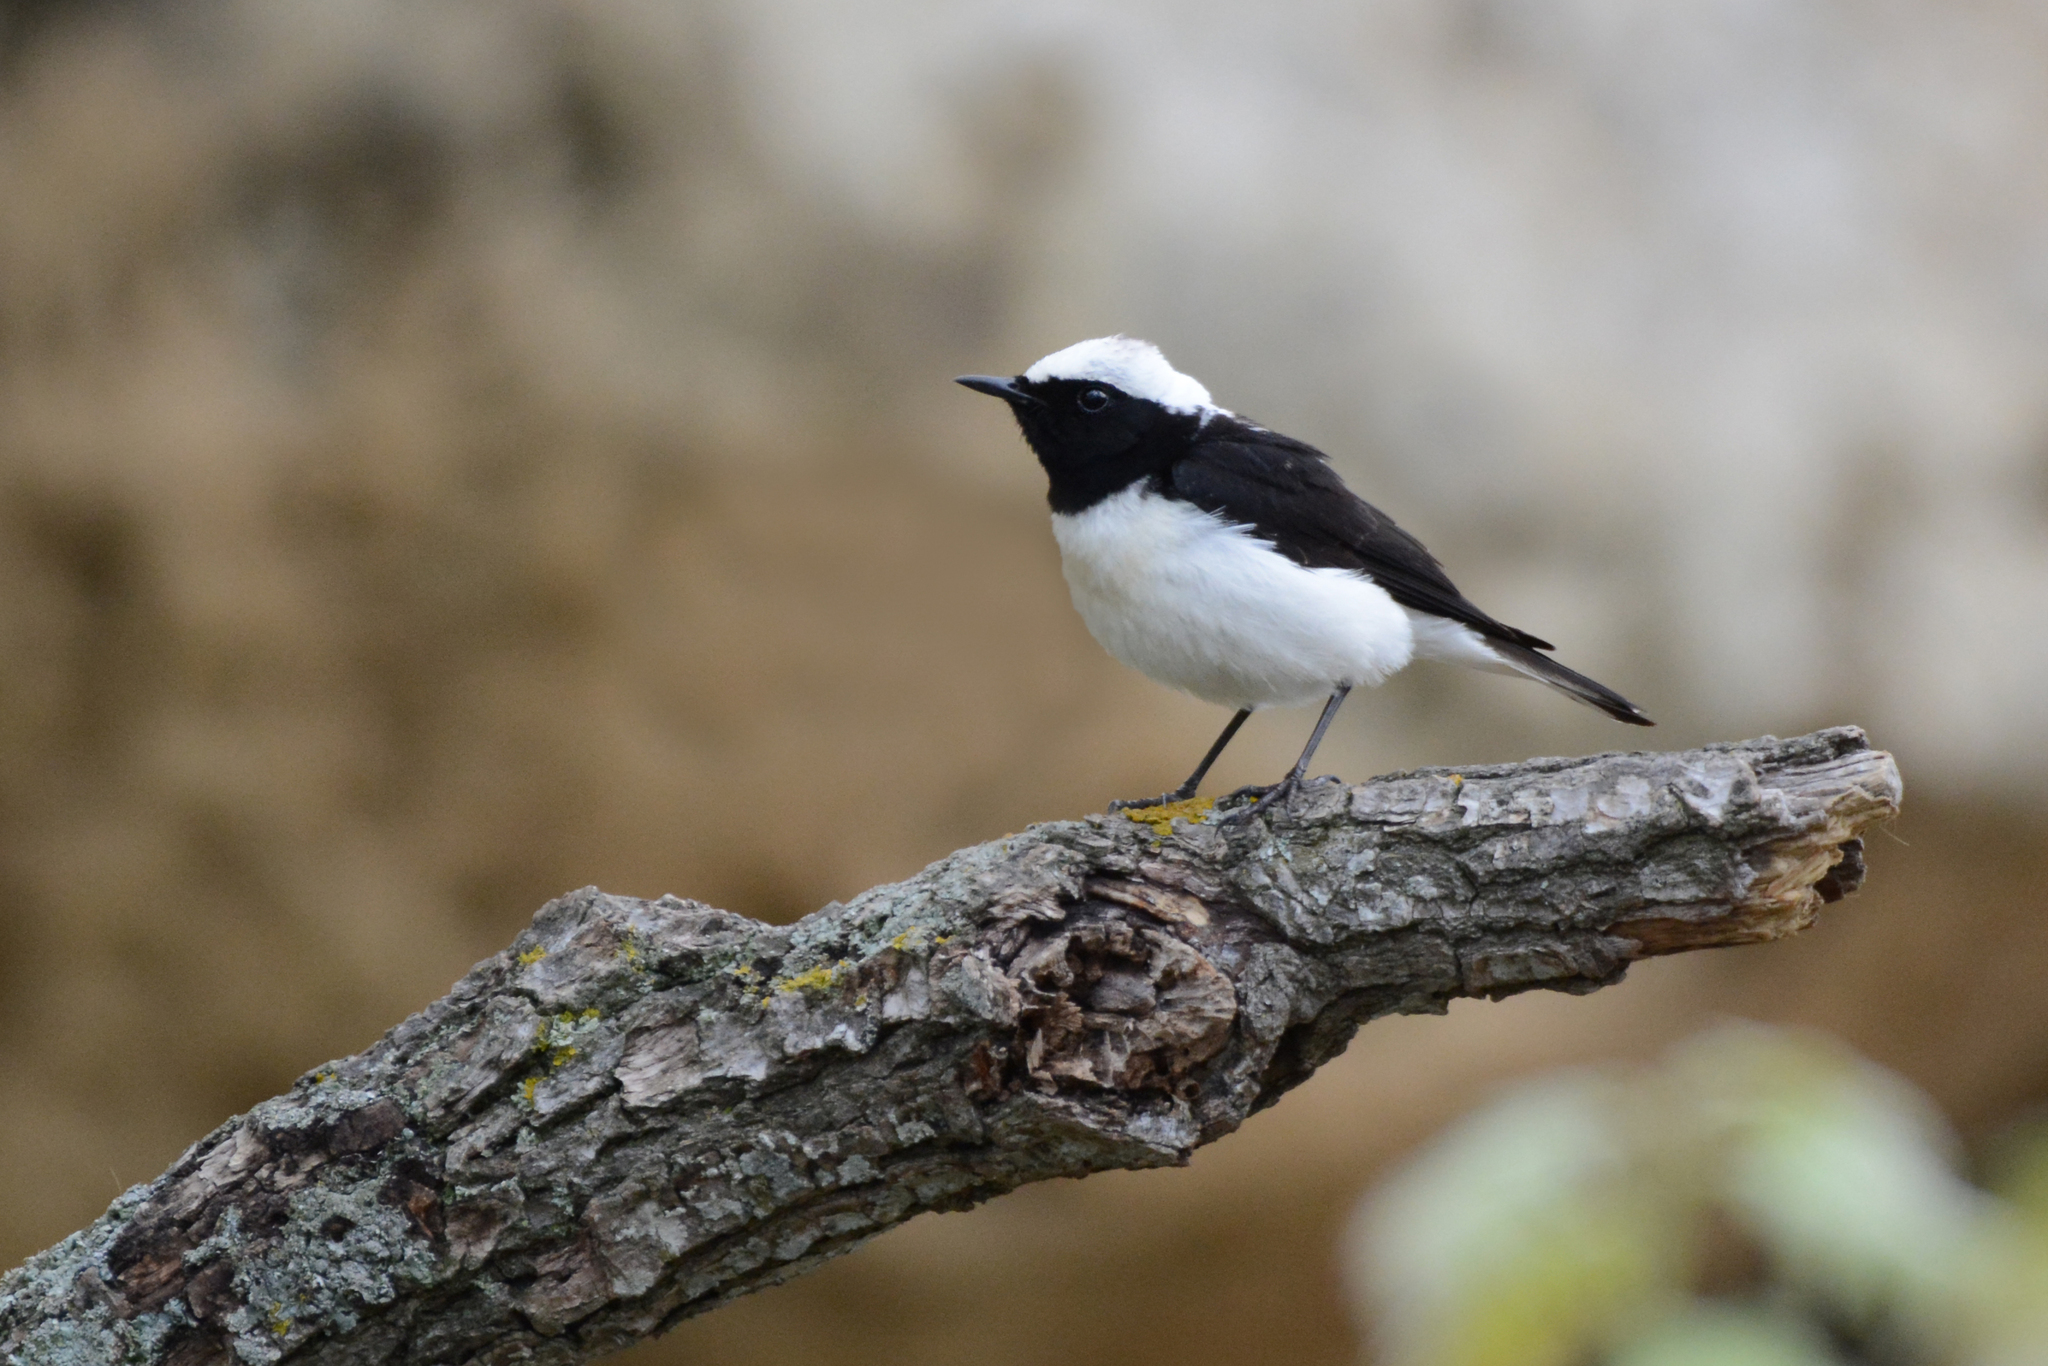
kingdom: Animalia
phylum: Chordata
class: Aves
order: Passeriformes
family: Muscicapidae
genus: Oenanthe
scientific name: Oenanthe pleschanka
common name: Pied wheatear
